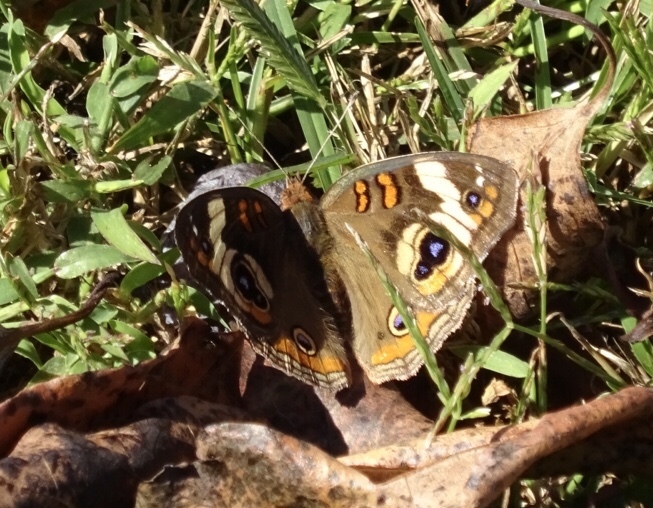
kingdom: Animalia
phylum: Arthropoda
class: Insecta
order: Lepidoptera
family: Nymphalidae
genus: Junonia
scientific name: Junonia coenia
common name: Common buckeye
